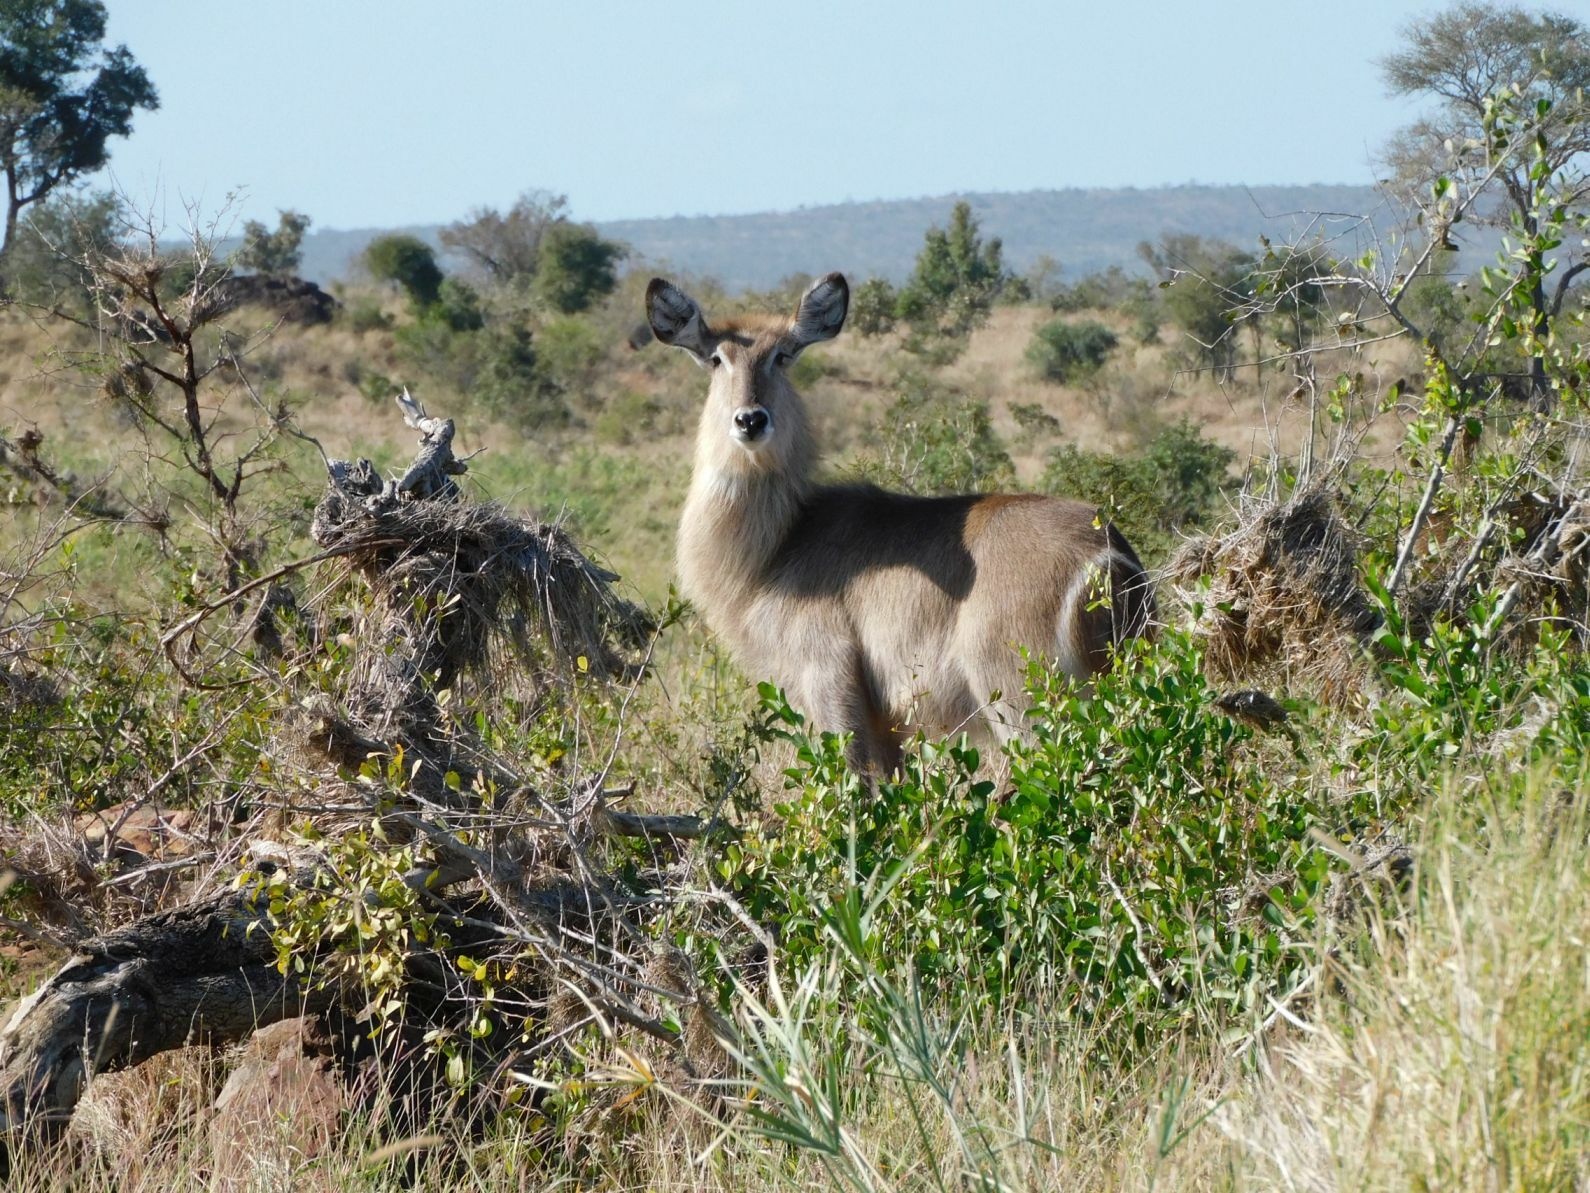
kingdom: Animalia
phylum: Chordata
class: Mammalia
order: Artiodactyla
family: Bovidae
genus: Kobus
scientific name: Kobus ellipsiprymnus
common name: Waterbuck
